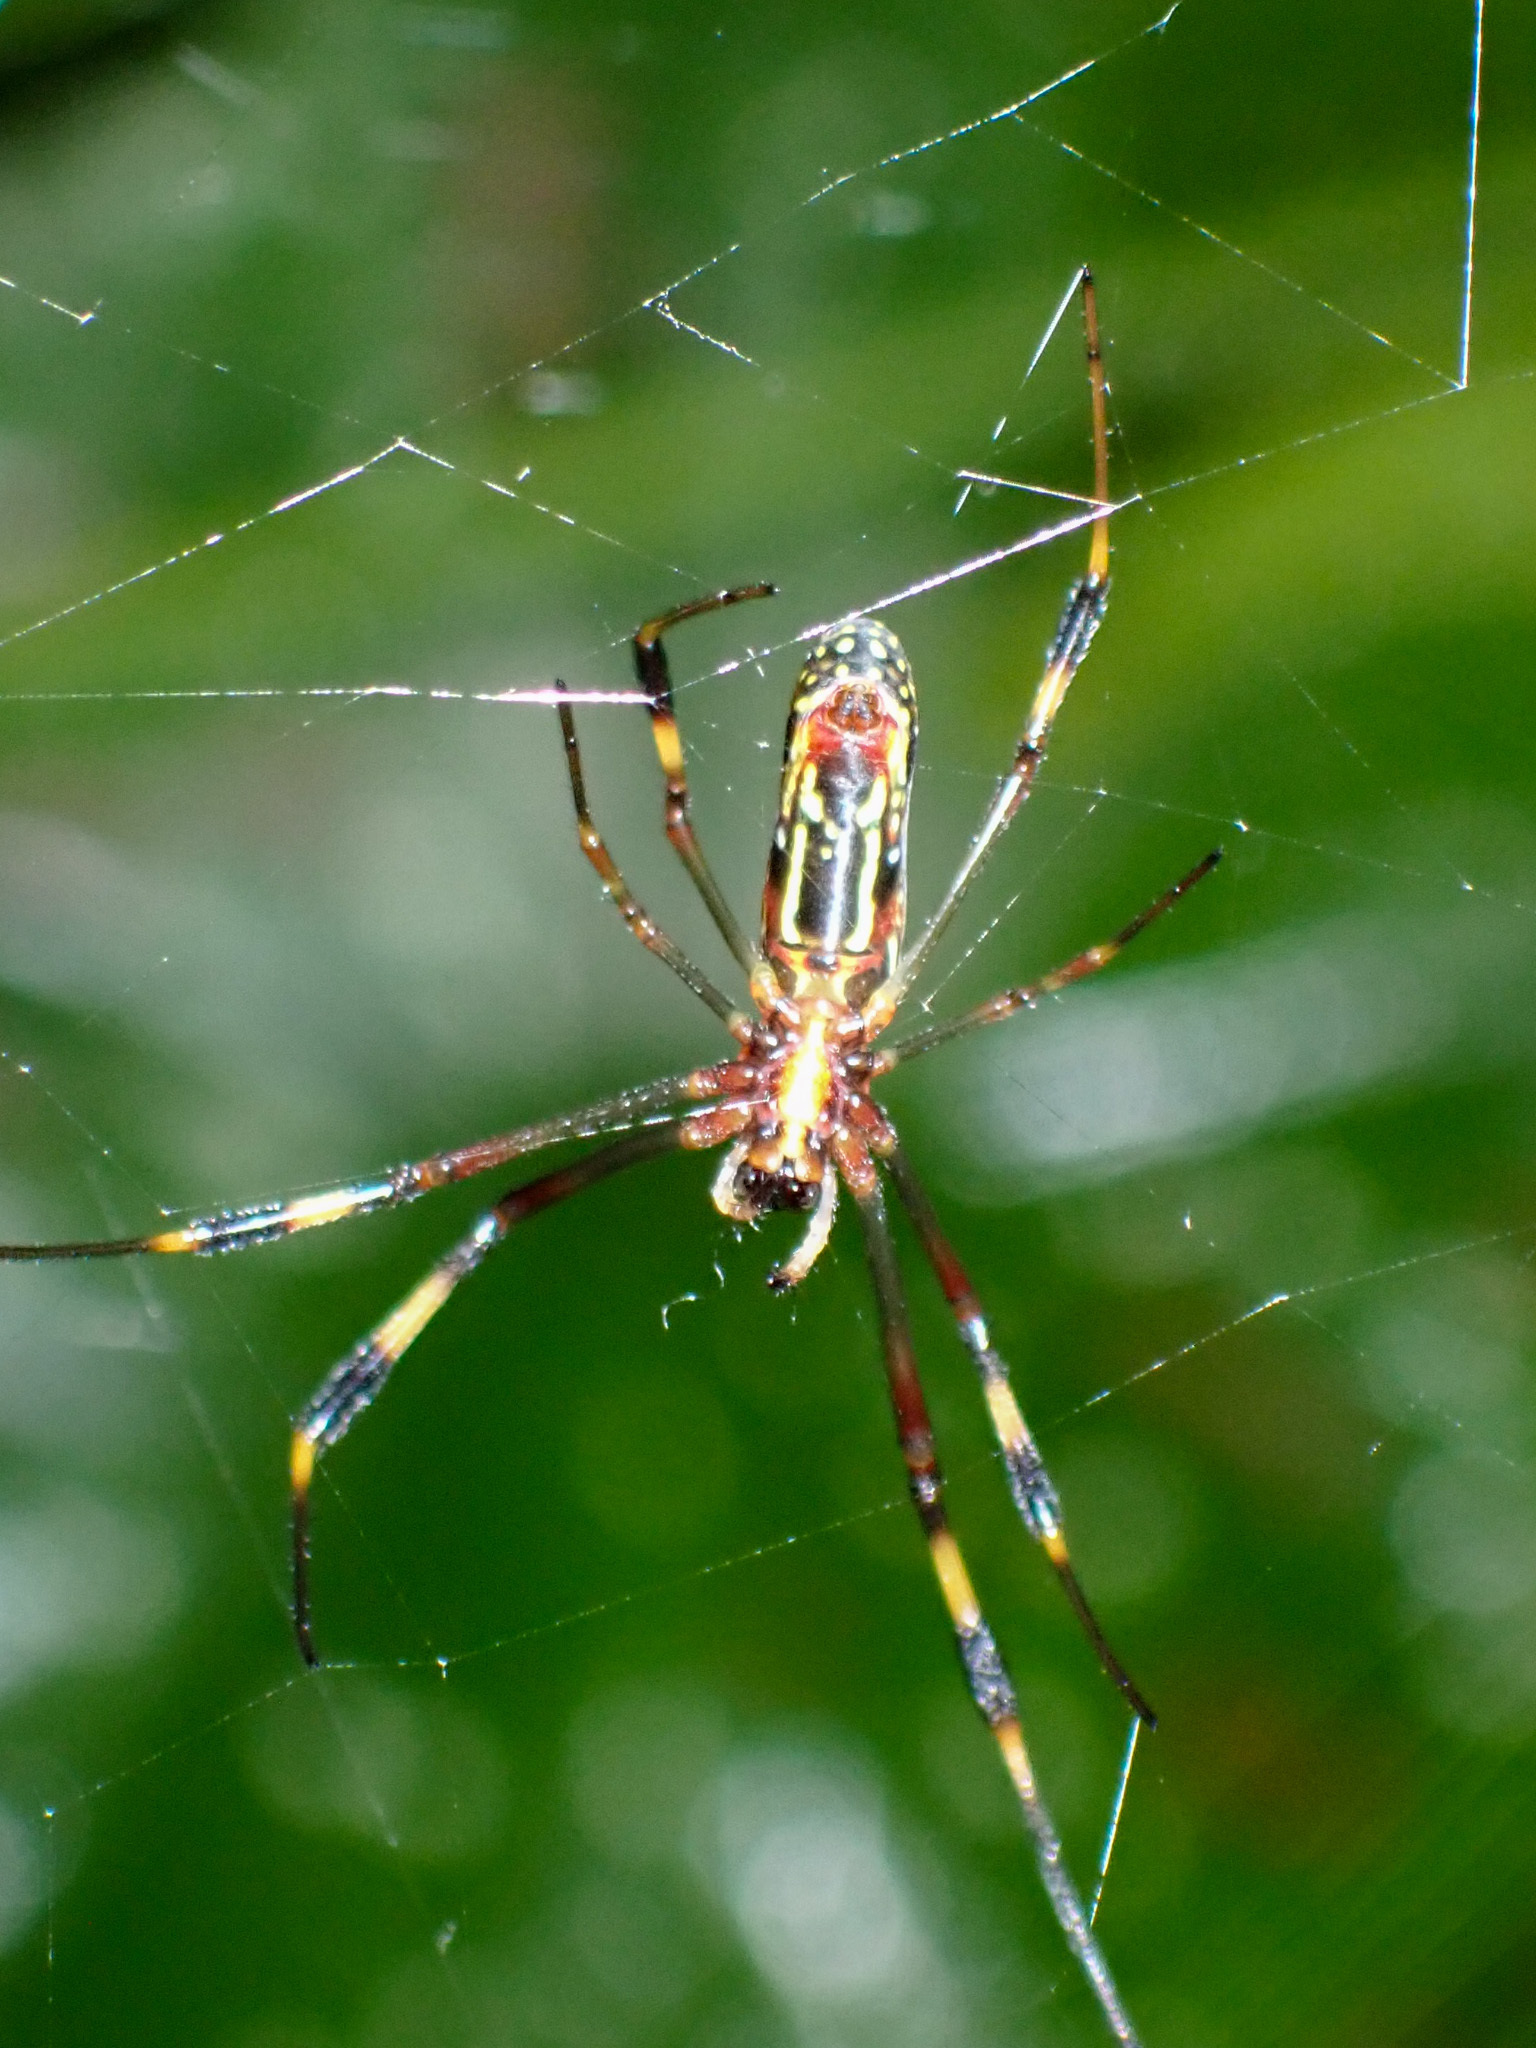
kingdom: Animalia
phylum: Arthropoda
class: Arachnida
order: Araneae
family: Araneidae
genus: Trichonephila
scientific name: Trichonephila clavipes
